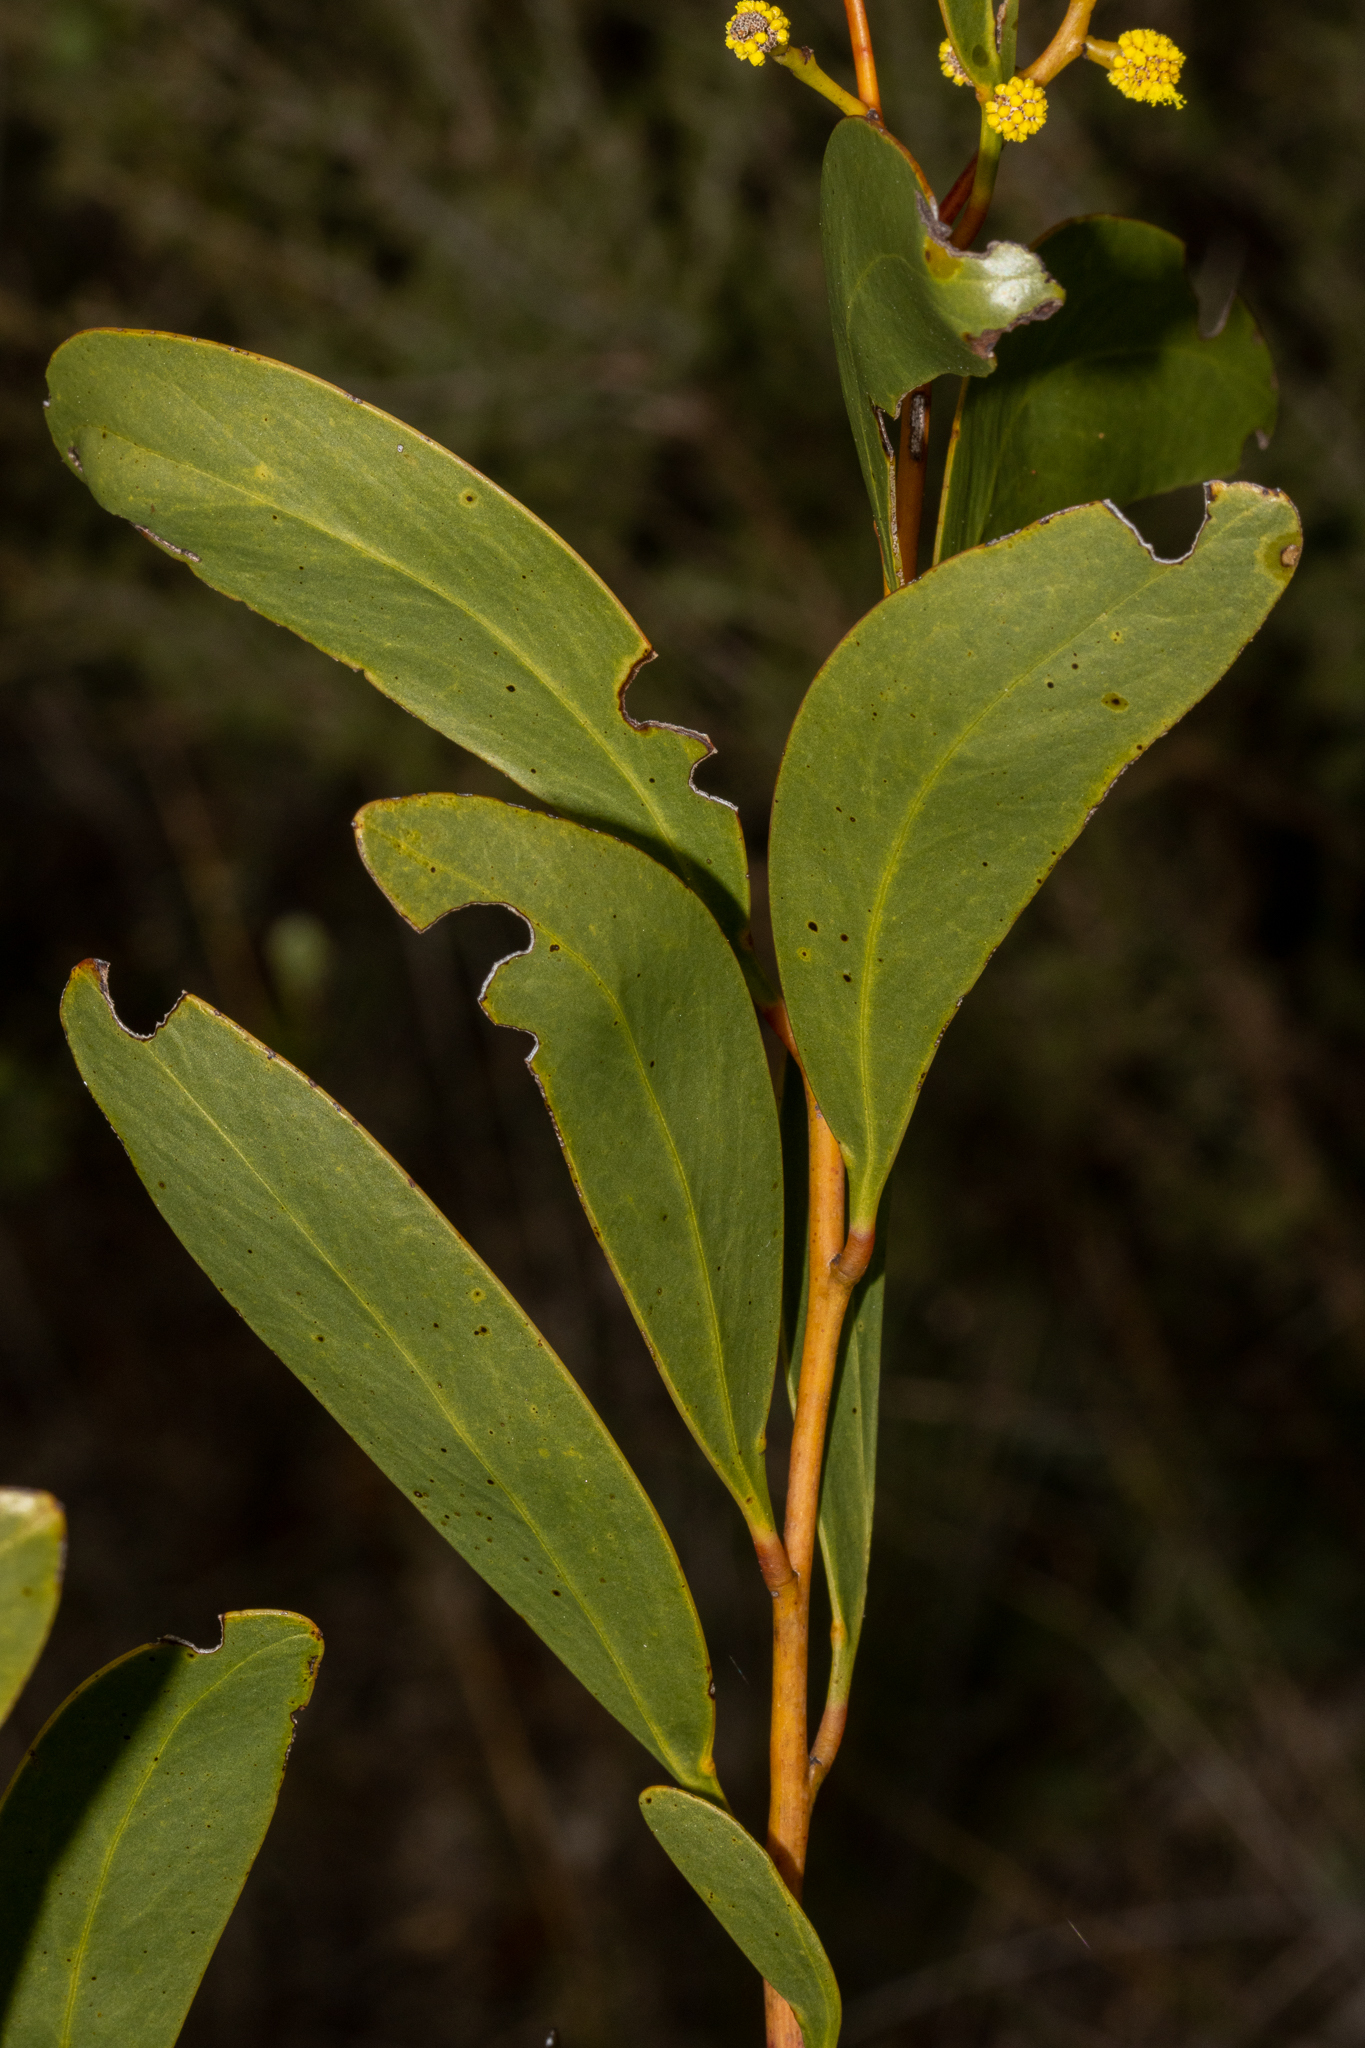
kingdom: Plantae
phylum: Tracheophyta
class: Magnoliopsida
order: Fabales
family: Fabaceae
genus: Acacia
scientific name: Acacia pycnantha
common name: Golden wattle
